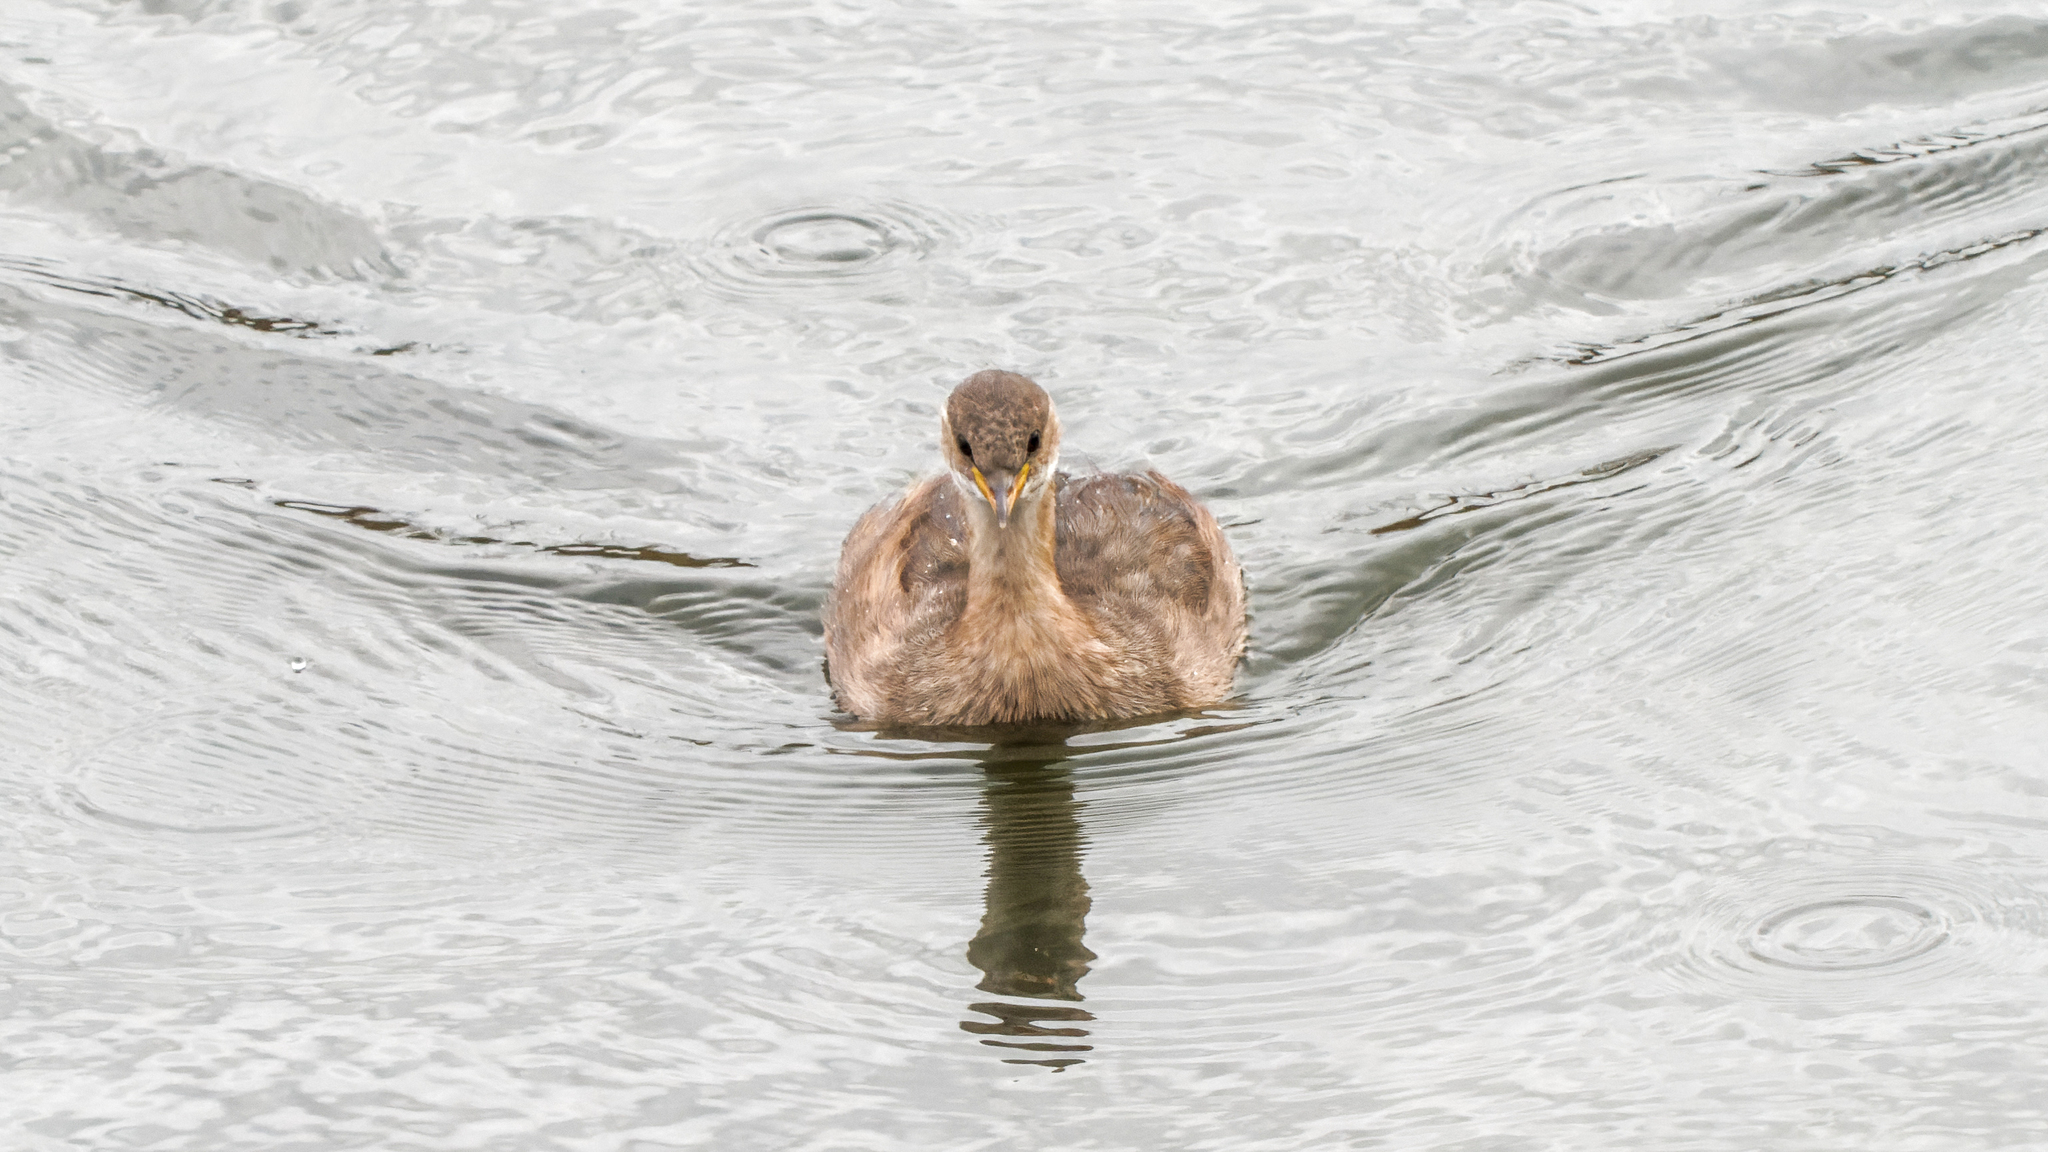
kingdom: Animalia
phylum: Chordata
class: Aves
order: Podicipediformes
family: Podicipedidae
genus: Tachybaptus
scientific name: Tachybaptus ruficollis
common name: Little grebe
